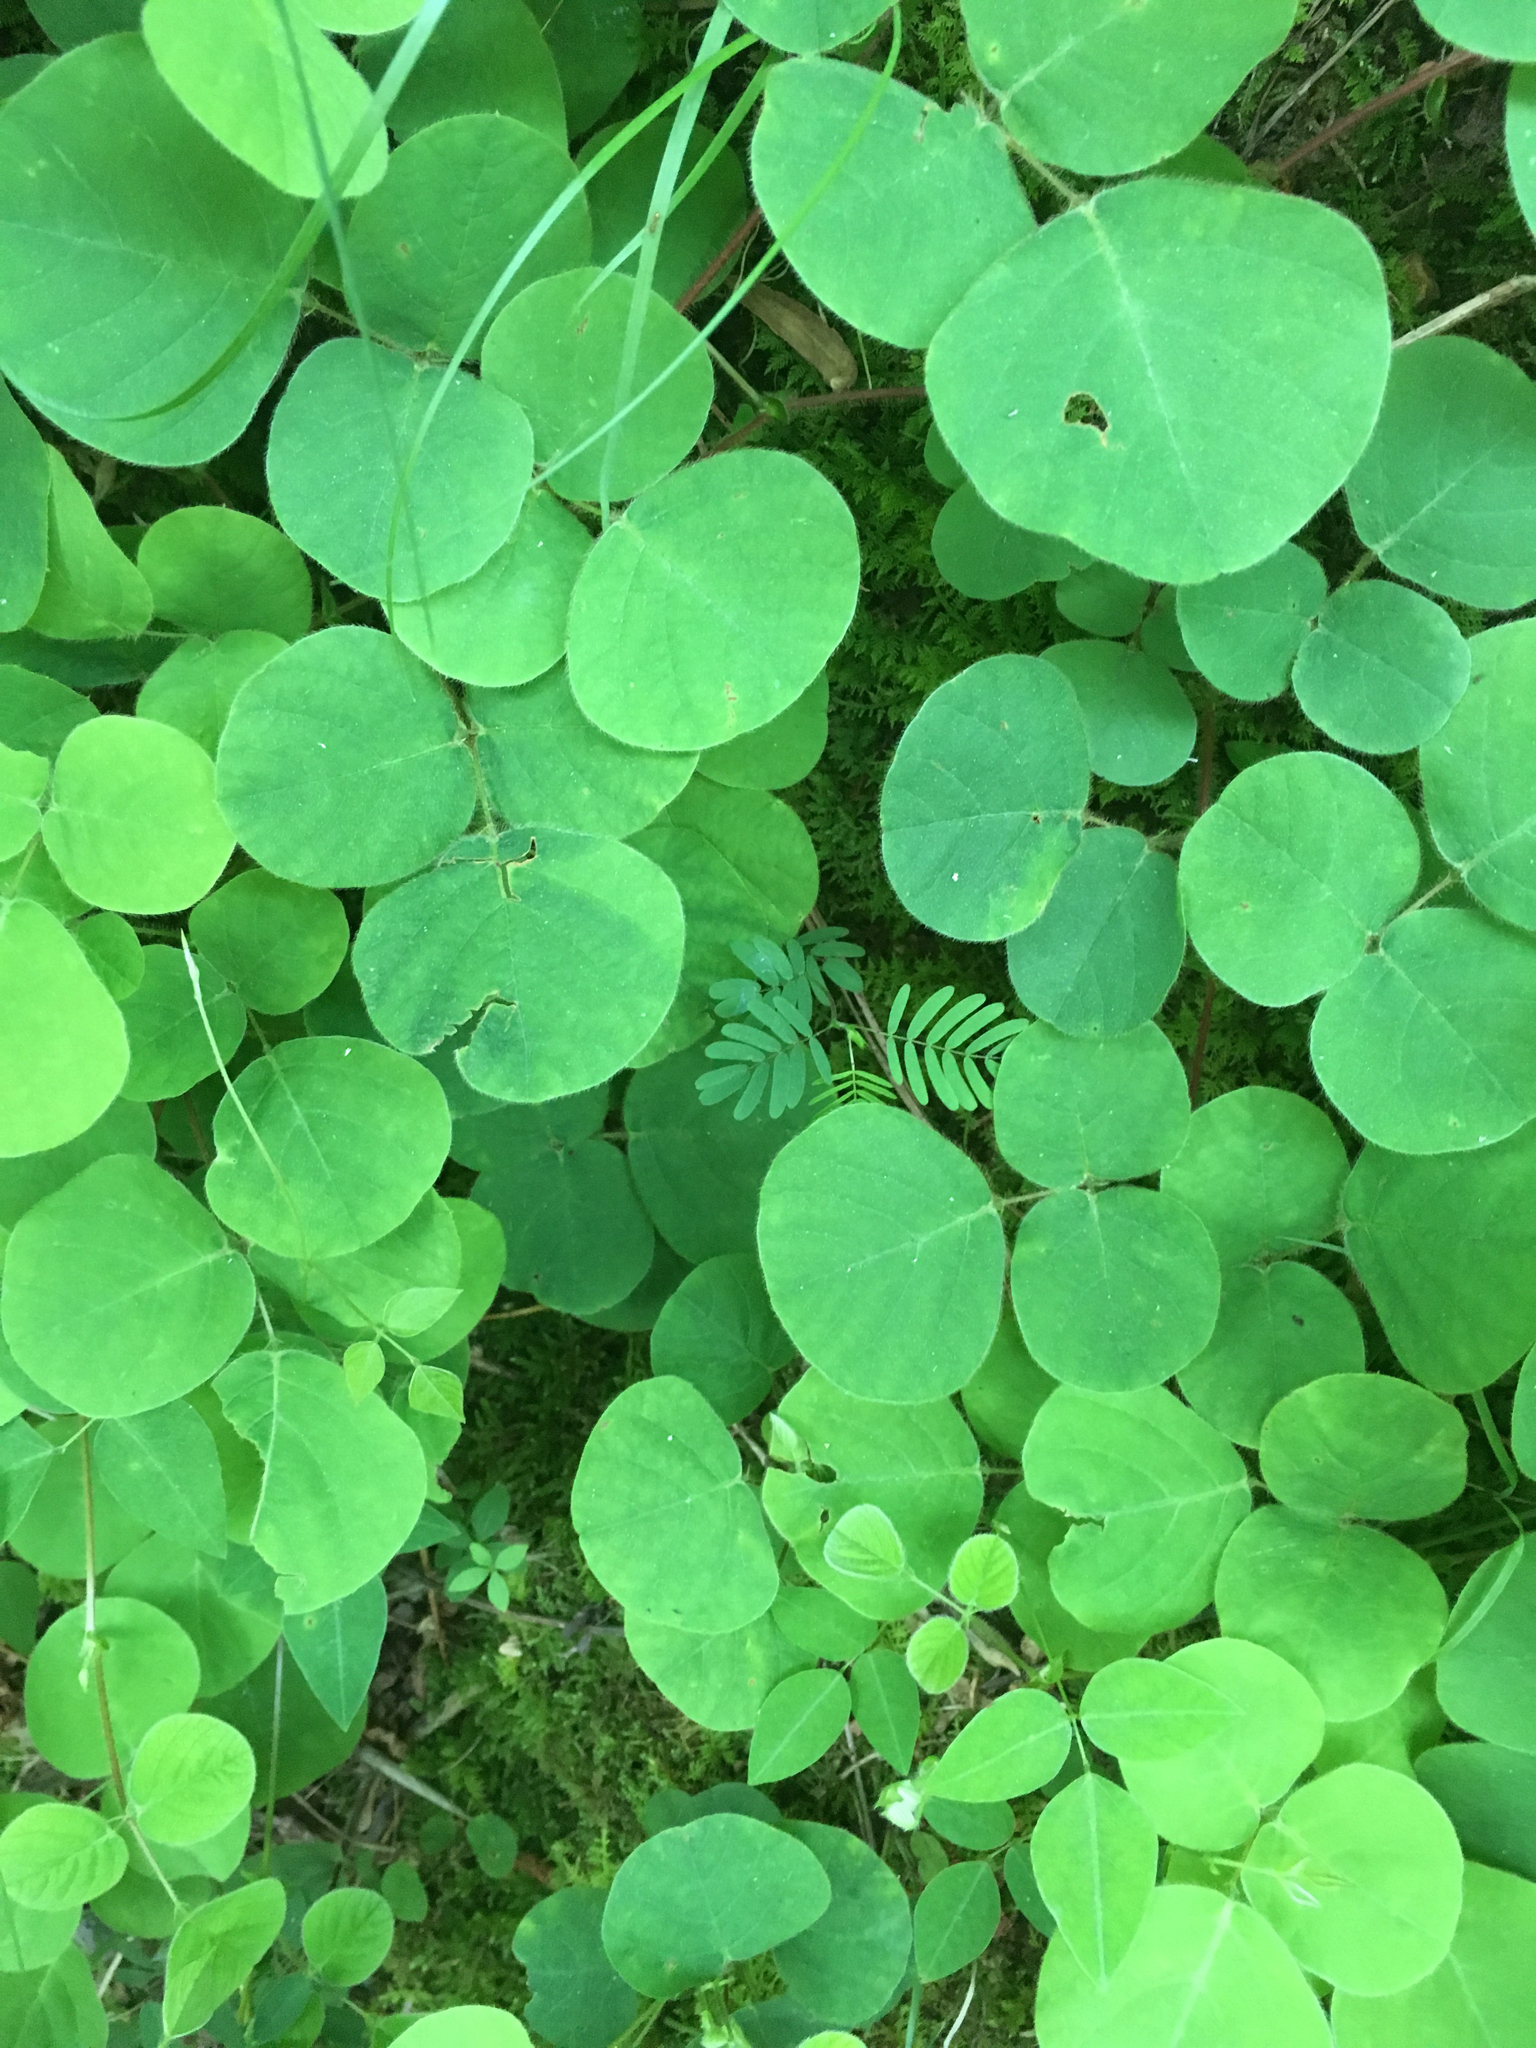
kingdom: Plantae
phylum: Tracheophyta
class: Magnoliopsida
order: Fabales
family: Fabaceae
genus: Desmodium
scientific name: Desmodium rotundifolium
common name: Dollarleaf
